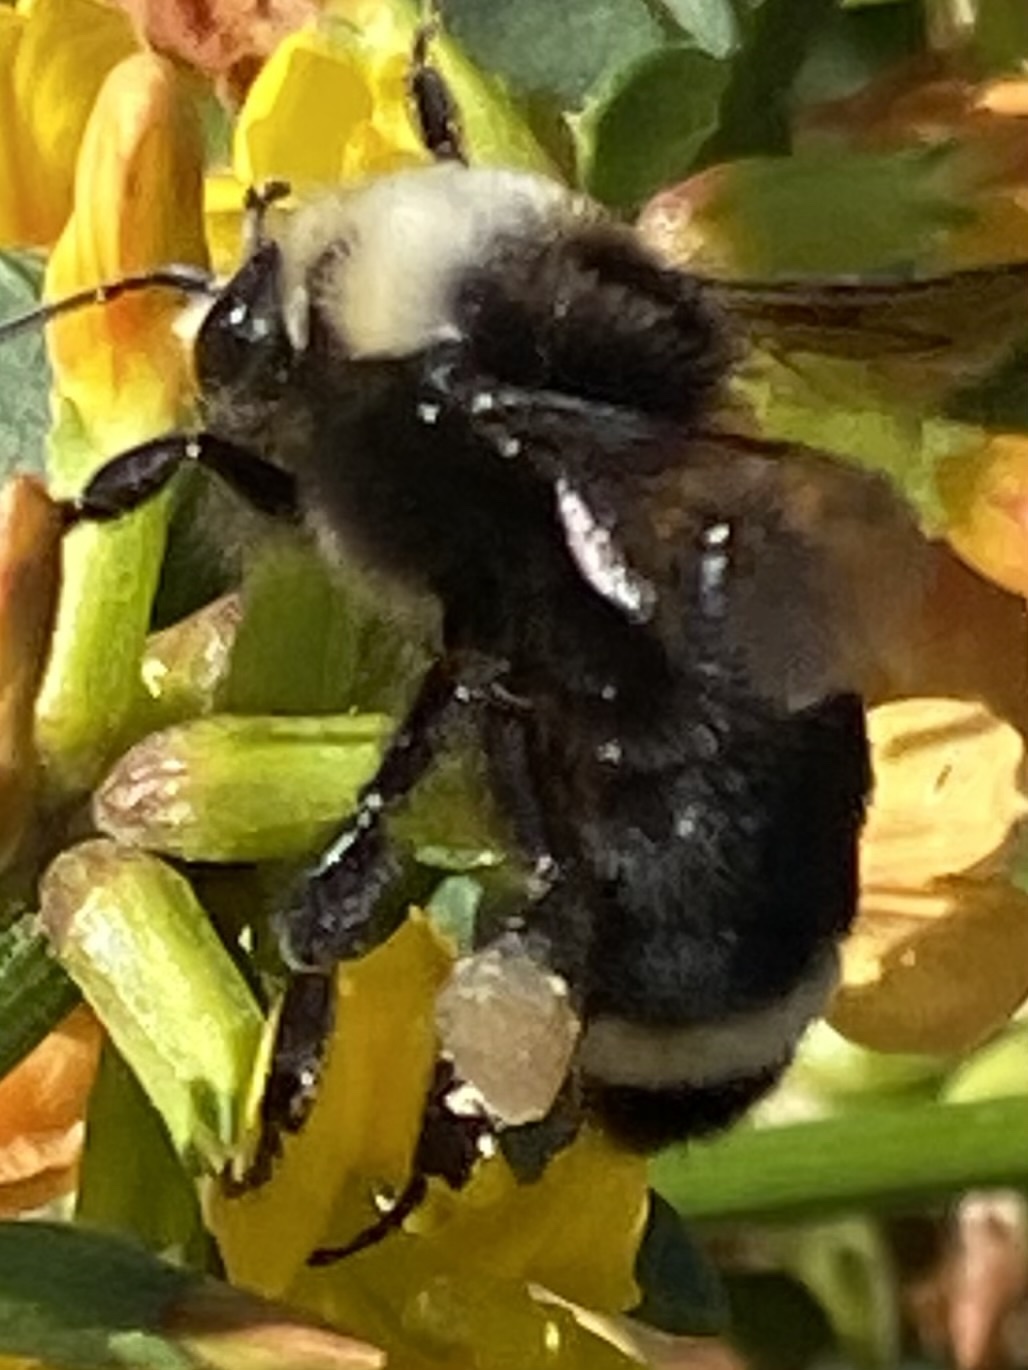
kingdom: Animalia
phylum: Arthropoda
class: Insecta
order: Hymenoptera
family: Apidae
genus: Bombus
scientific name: Bombus vosnesenskii
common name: Vosnesensky bumble bee
